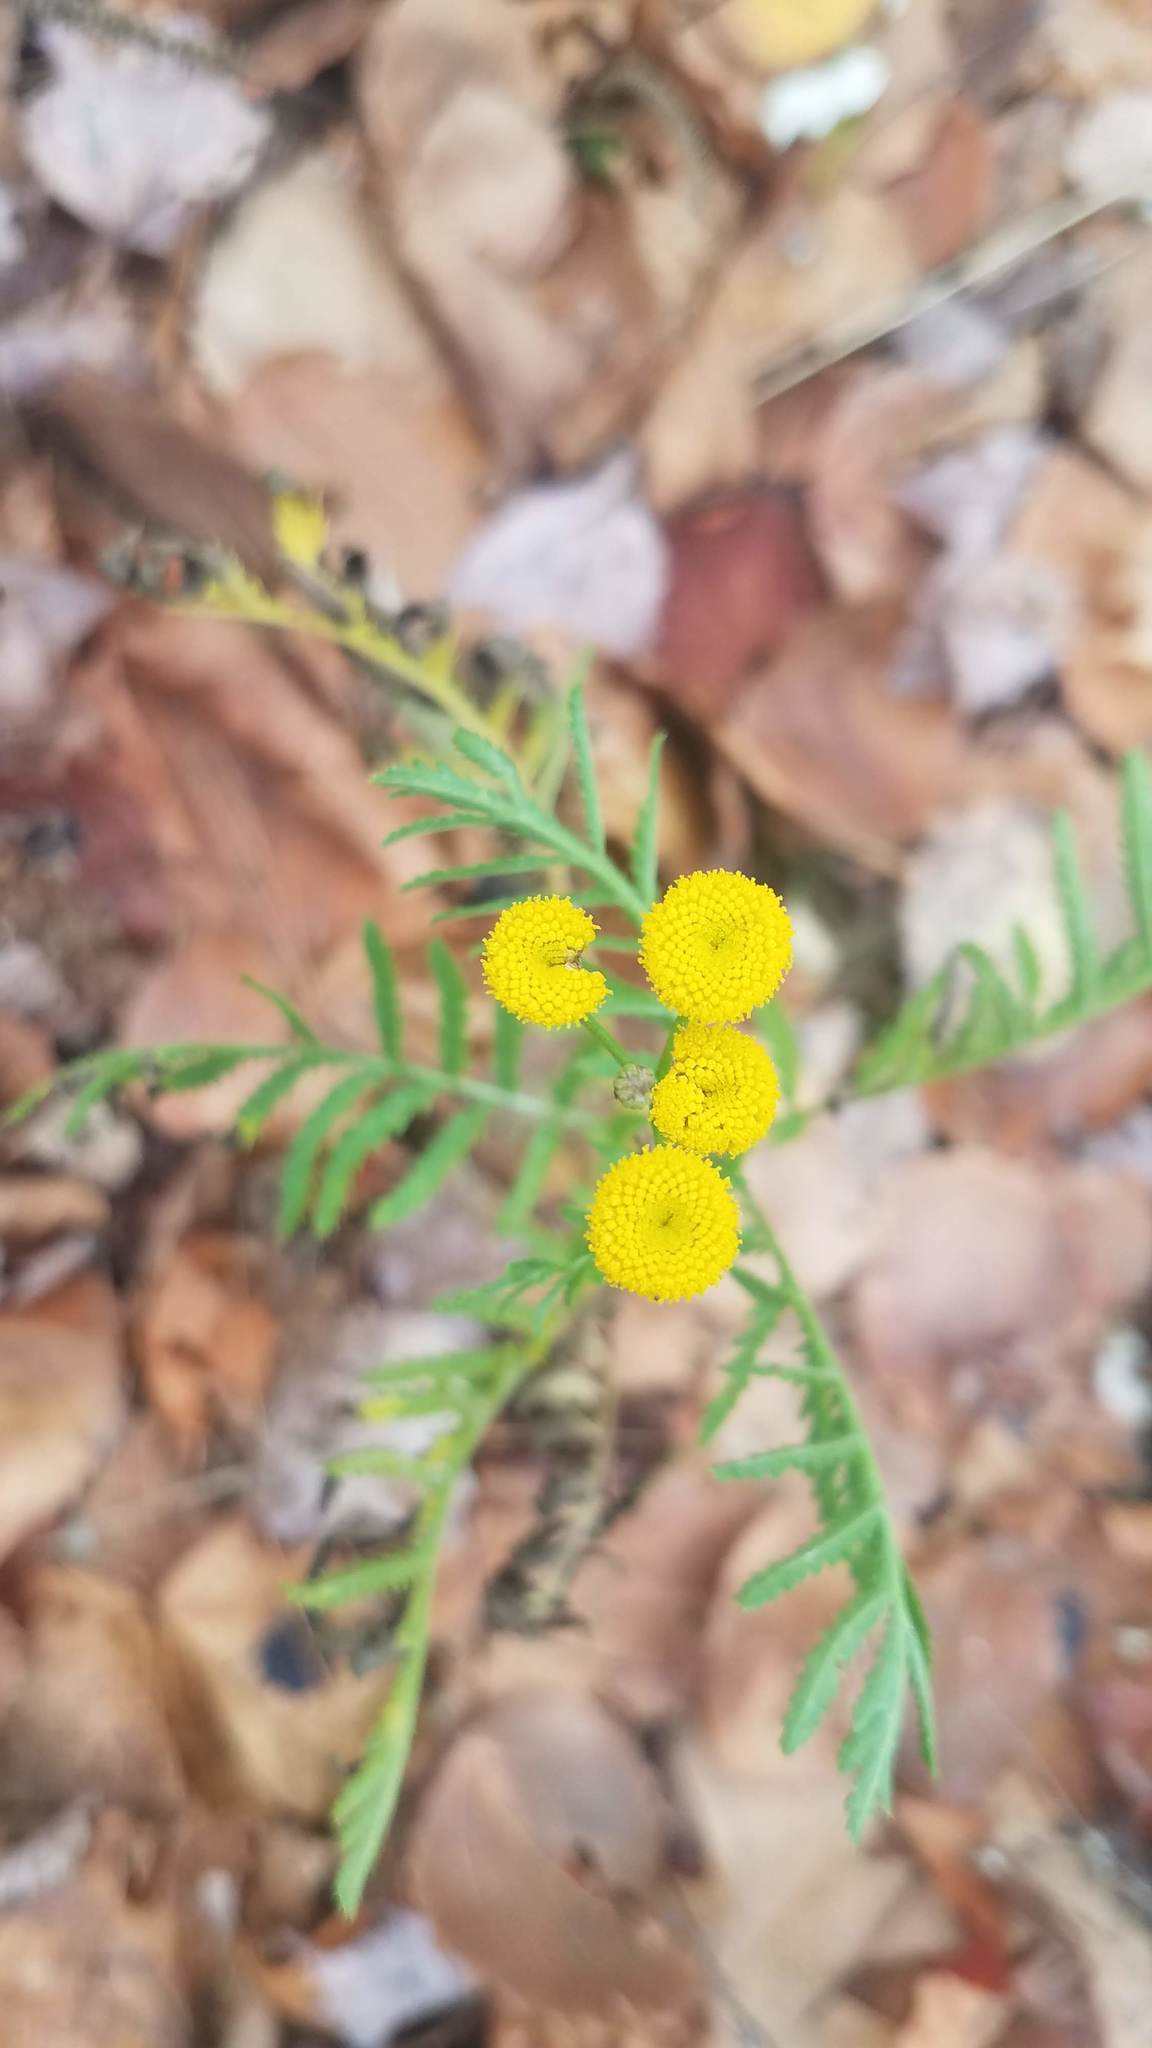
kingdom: Plantae
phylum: Tracheophyta
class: Magnoliopsida
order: Asterales
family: Asteraceae
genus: Tanacetum
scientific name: Tanacetum vulgare
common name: Common tansy
